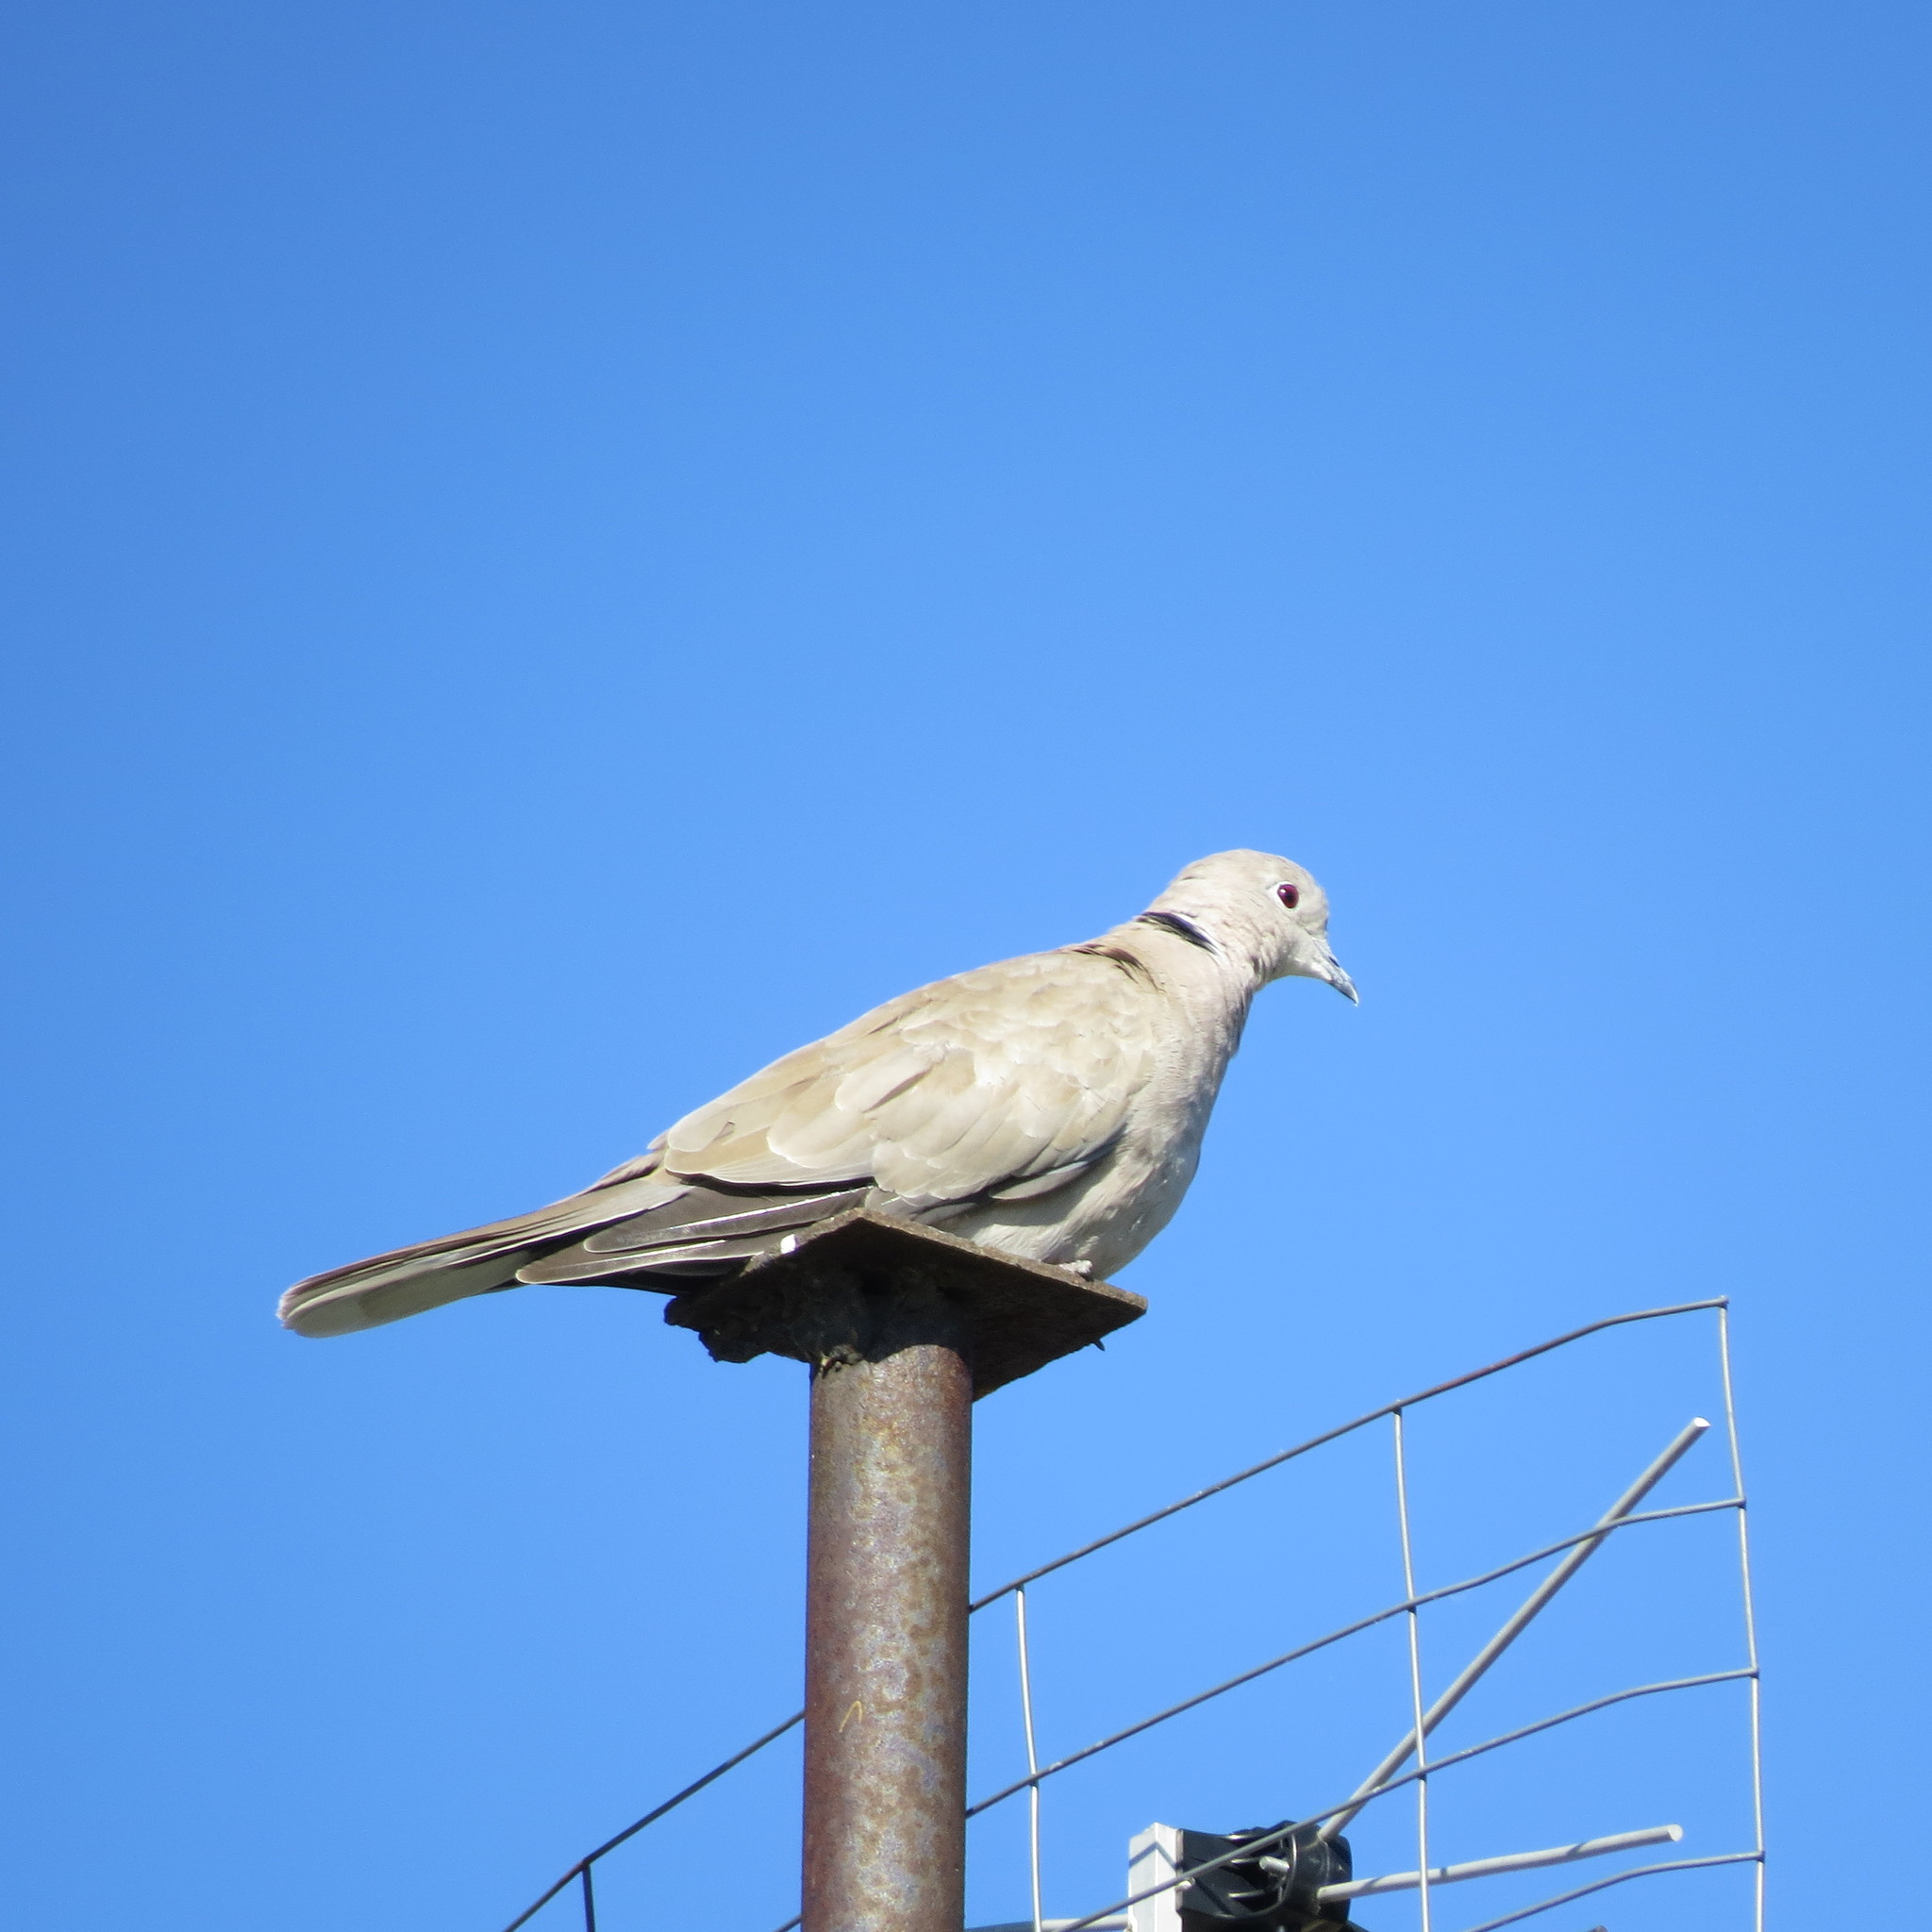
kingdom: Animalia
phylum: Chordata
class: Aves
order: Columbiformes
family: Columbidae
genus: Streptopelia
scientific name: Streptopelia decaocto
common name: Eurasian collared dove
